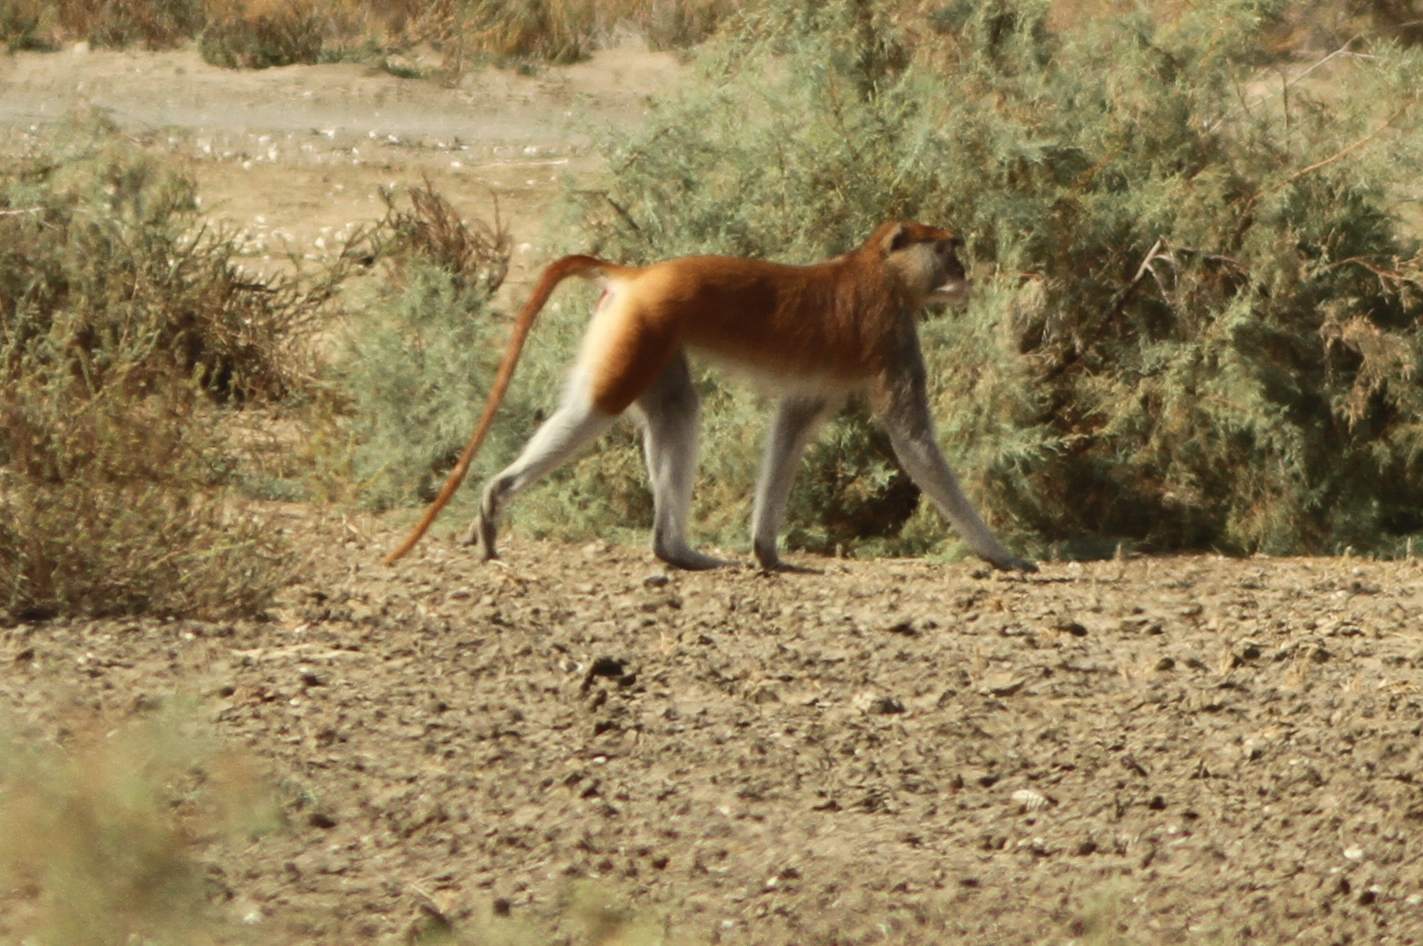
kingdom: Animalia
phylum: Chordata
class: Mammalia
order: Primates
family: Cercopithecidae
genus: Erythrocebus
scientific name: Erythrocebus patas
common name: Patas monkey
